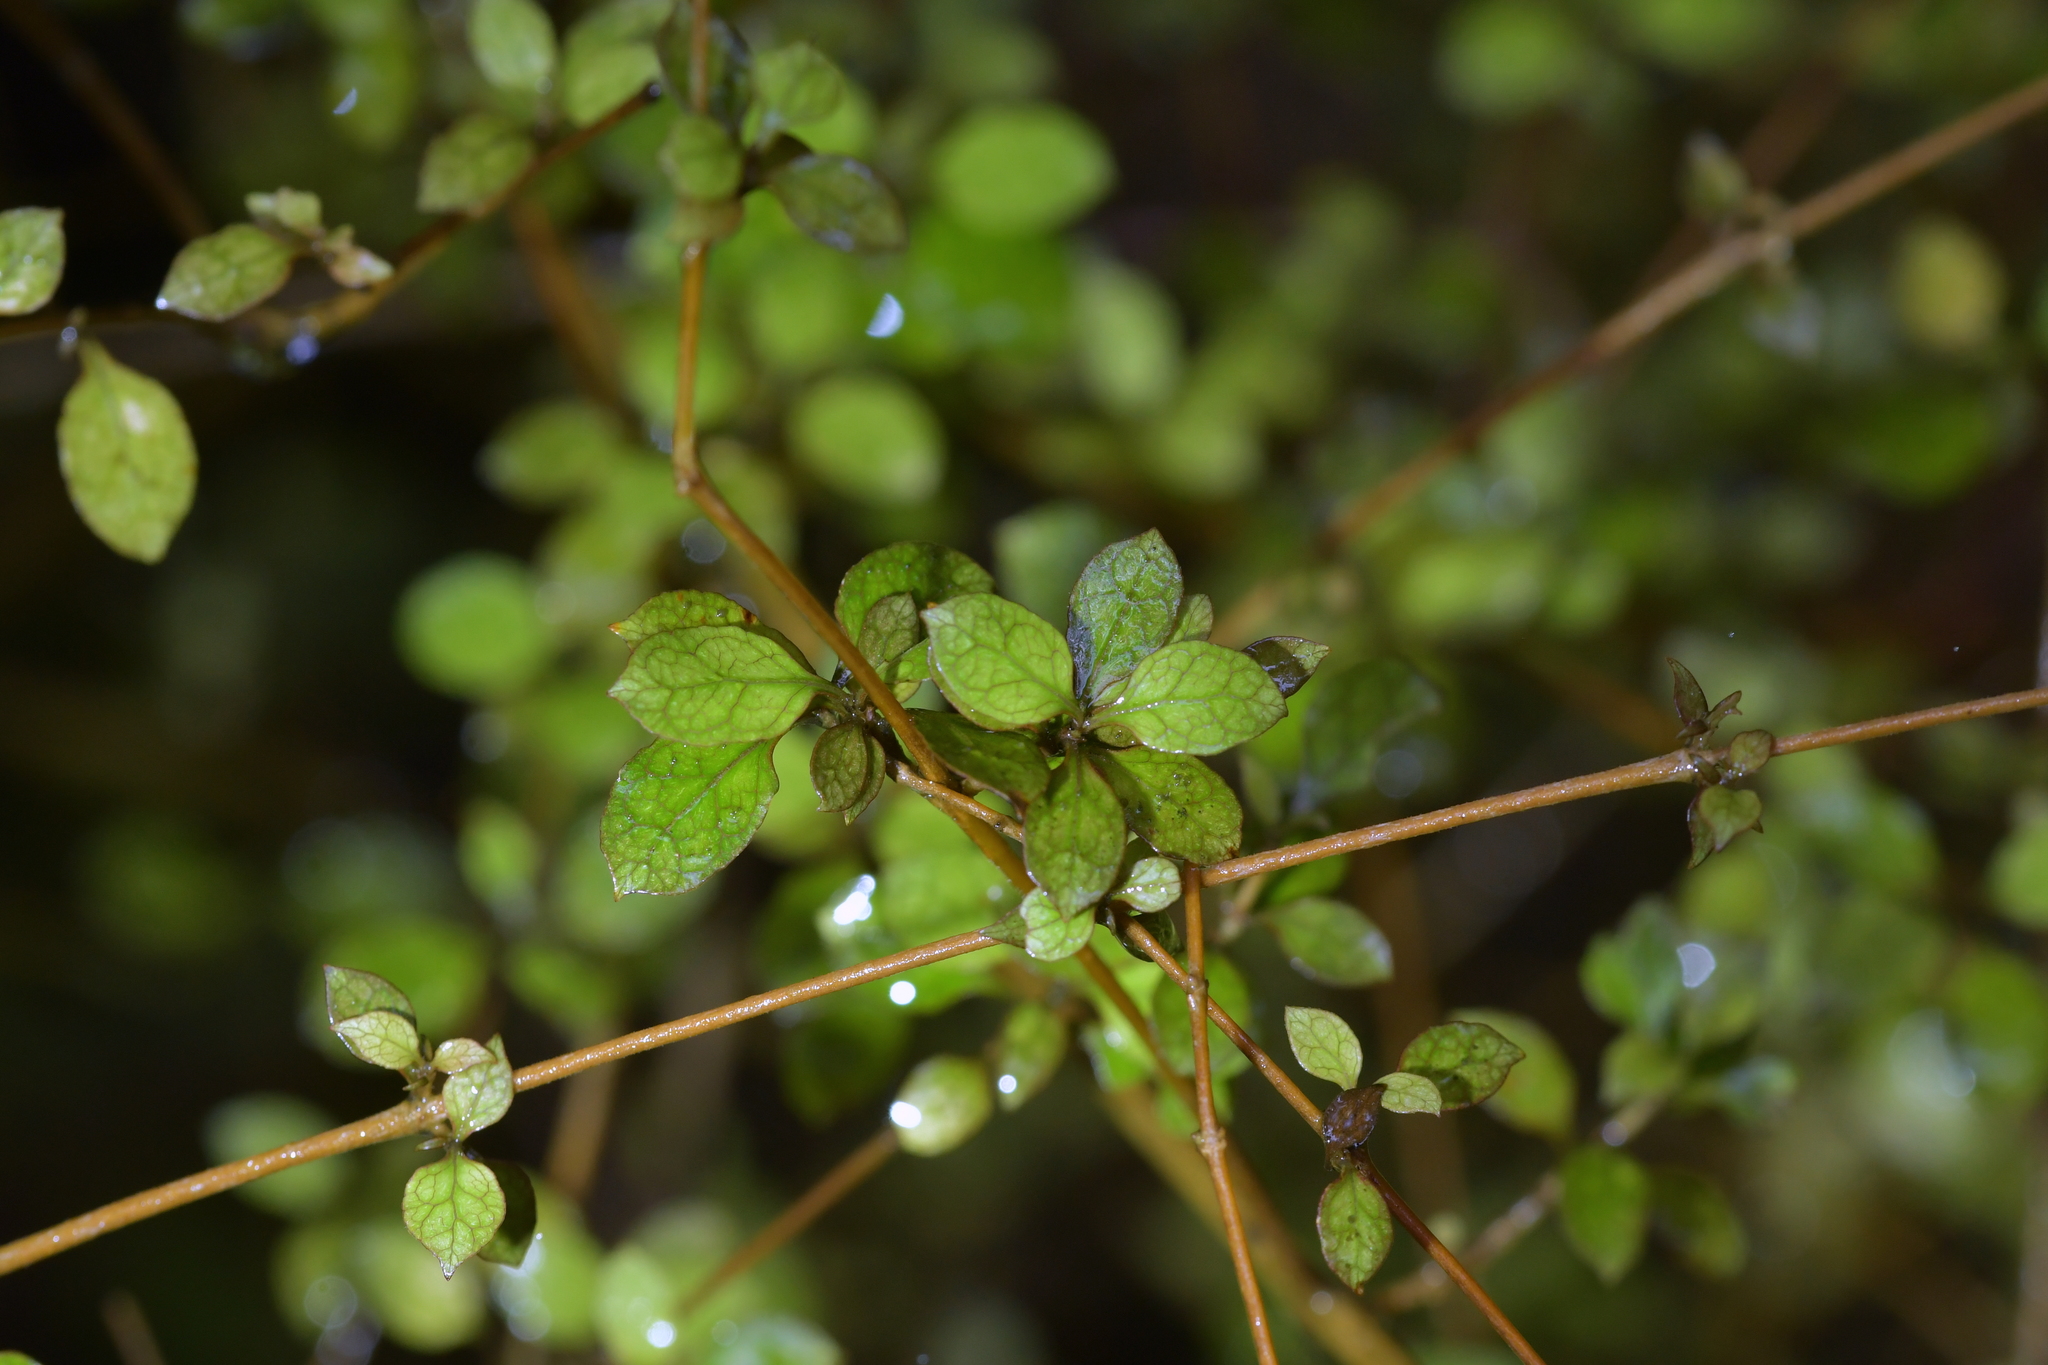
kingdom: Plantae
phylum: Tracheophyta
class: Magnoliopsida
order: Gentianales
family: Rubiaceae
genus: Coprosma
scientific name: Coprosma areolata
